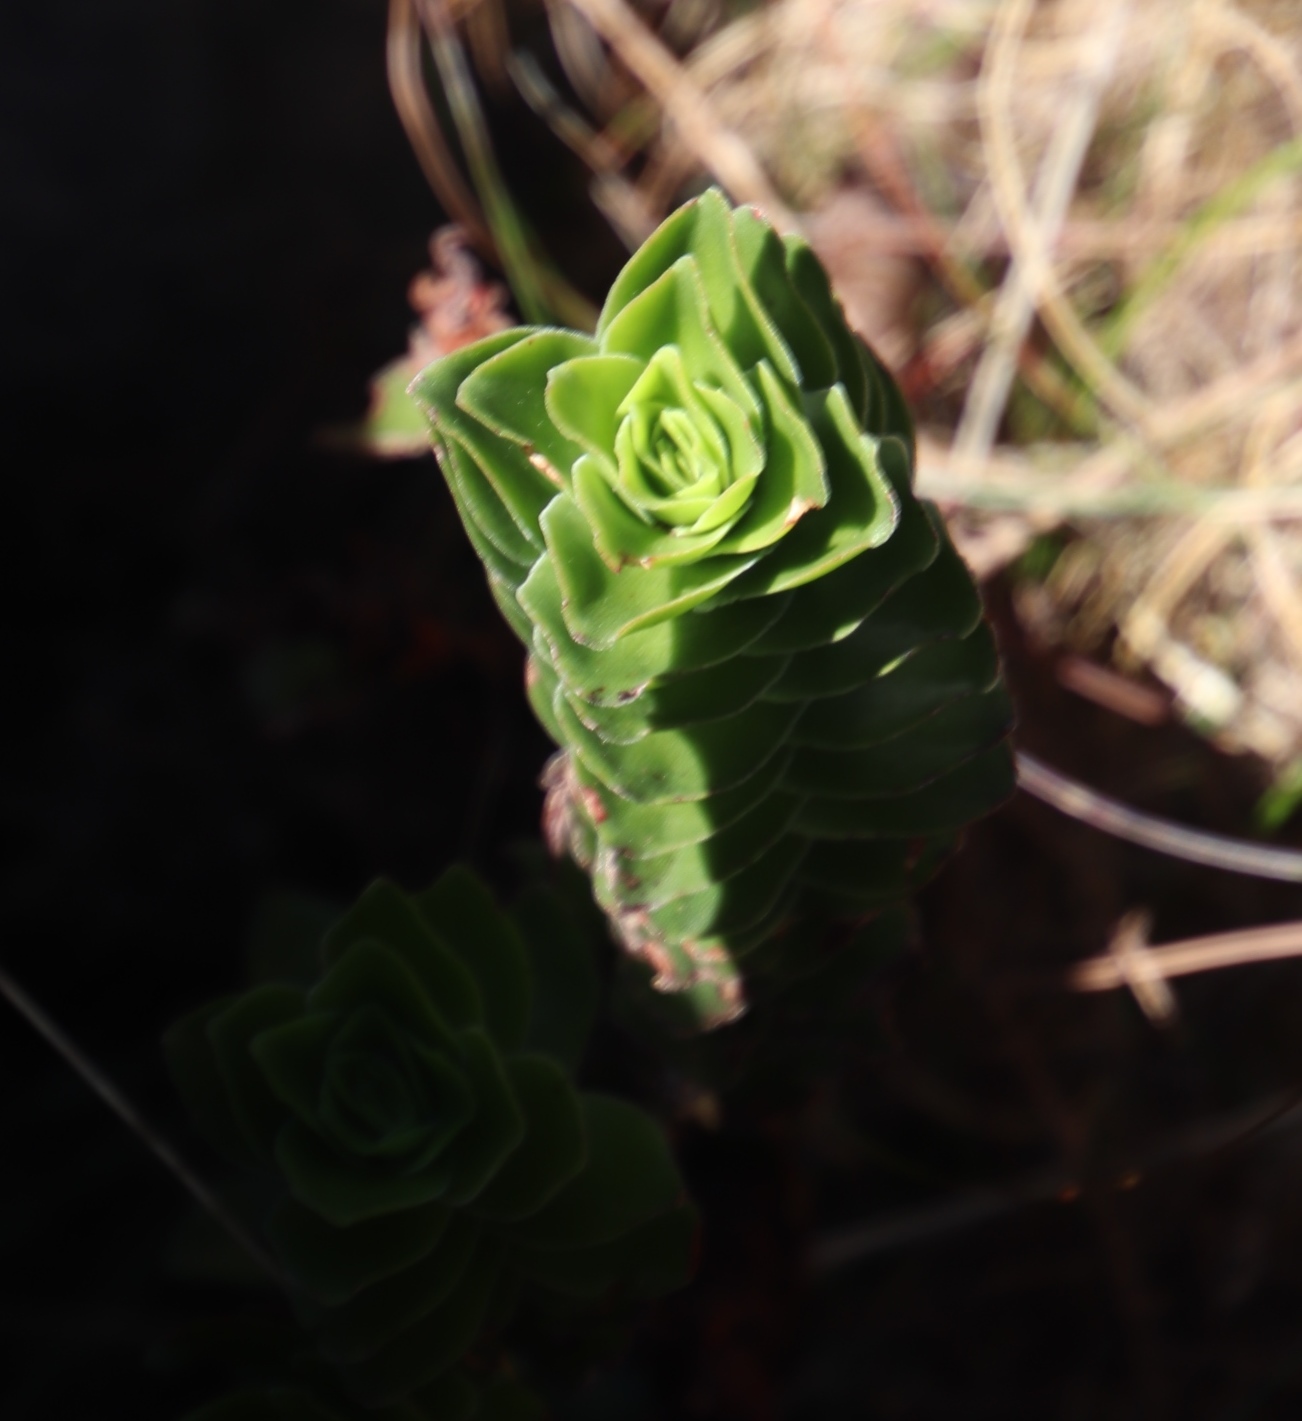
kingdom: Plantae
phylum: Tracheophyta
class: Magnoliopsida
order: Saxifragales
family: Crassulaceae
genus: Crassula
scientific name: Crassula coccinea
